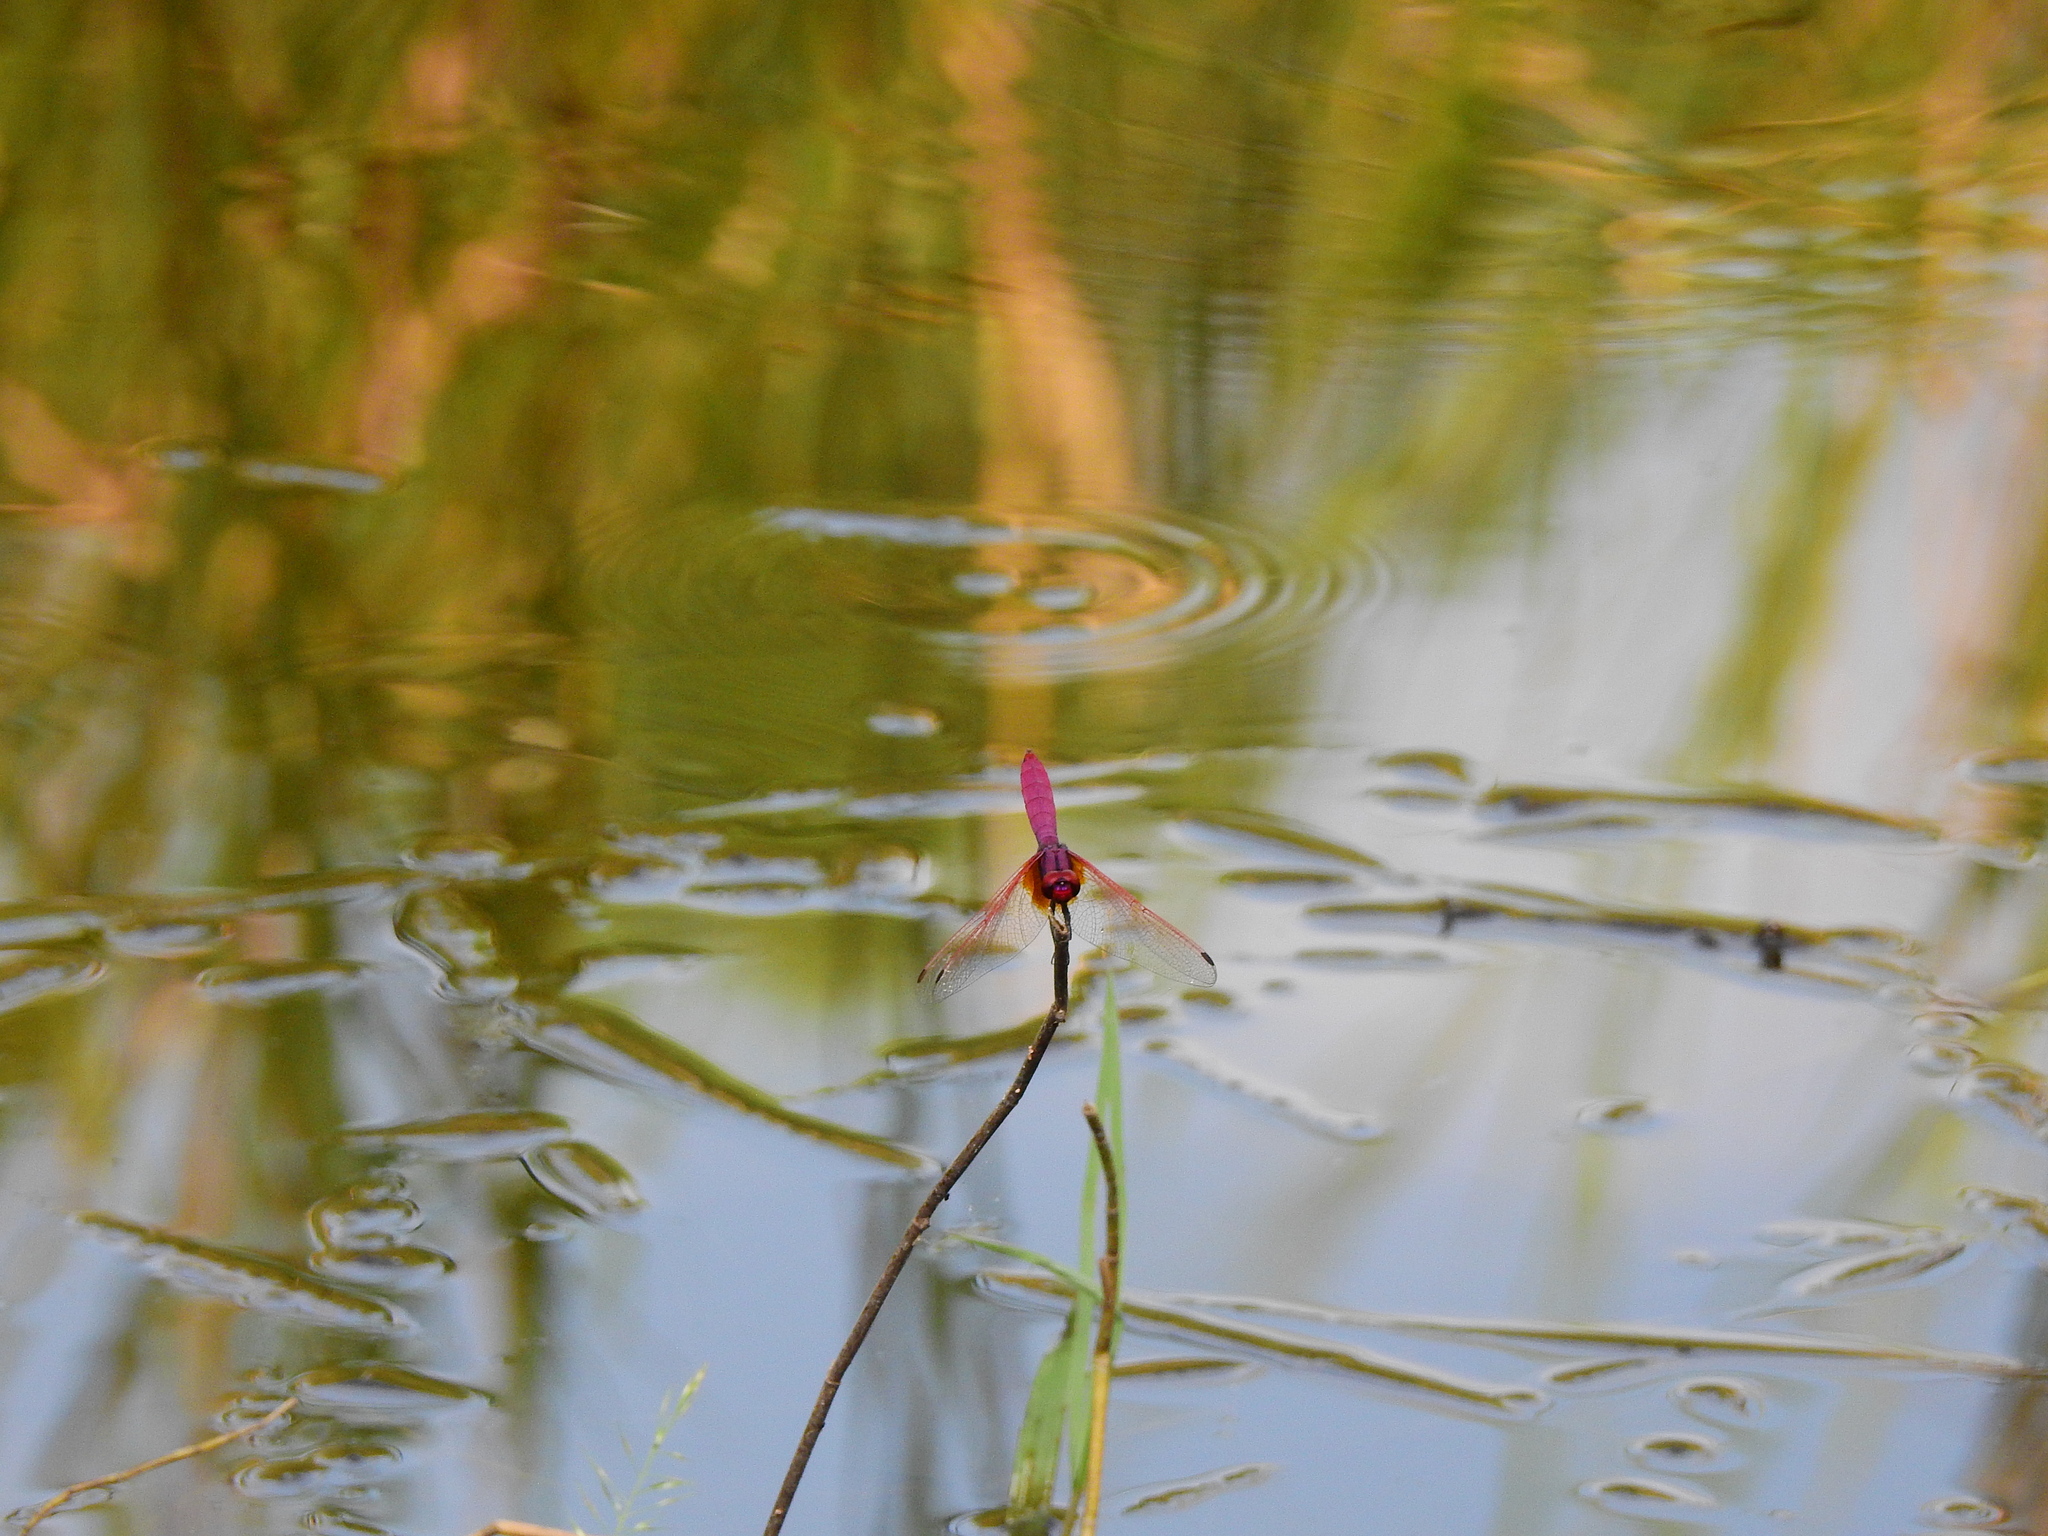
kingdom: Animalia
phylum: Arthropoda
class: Insecta
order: Odonata
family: Libellulidae
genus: Trithemis
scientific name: Trithemis aurora
